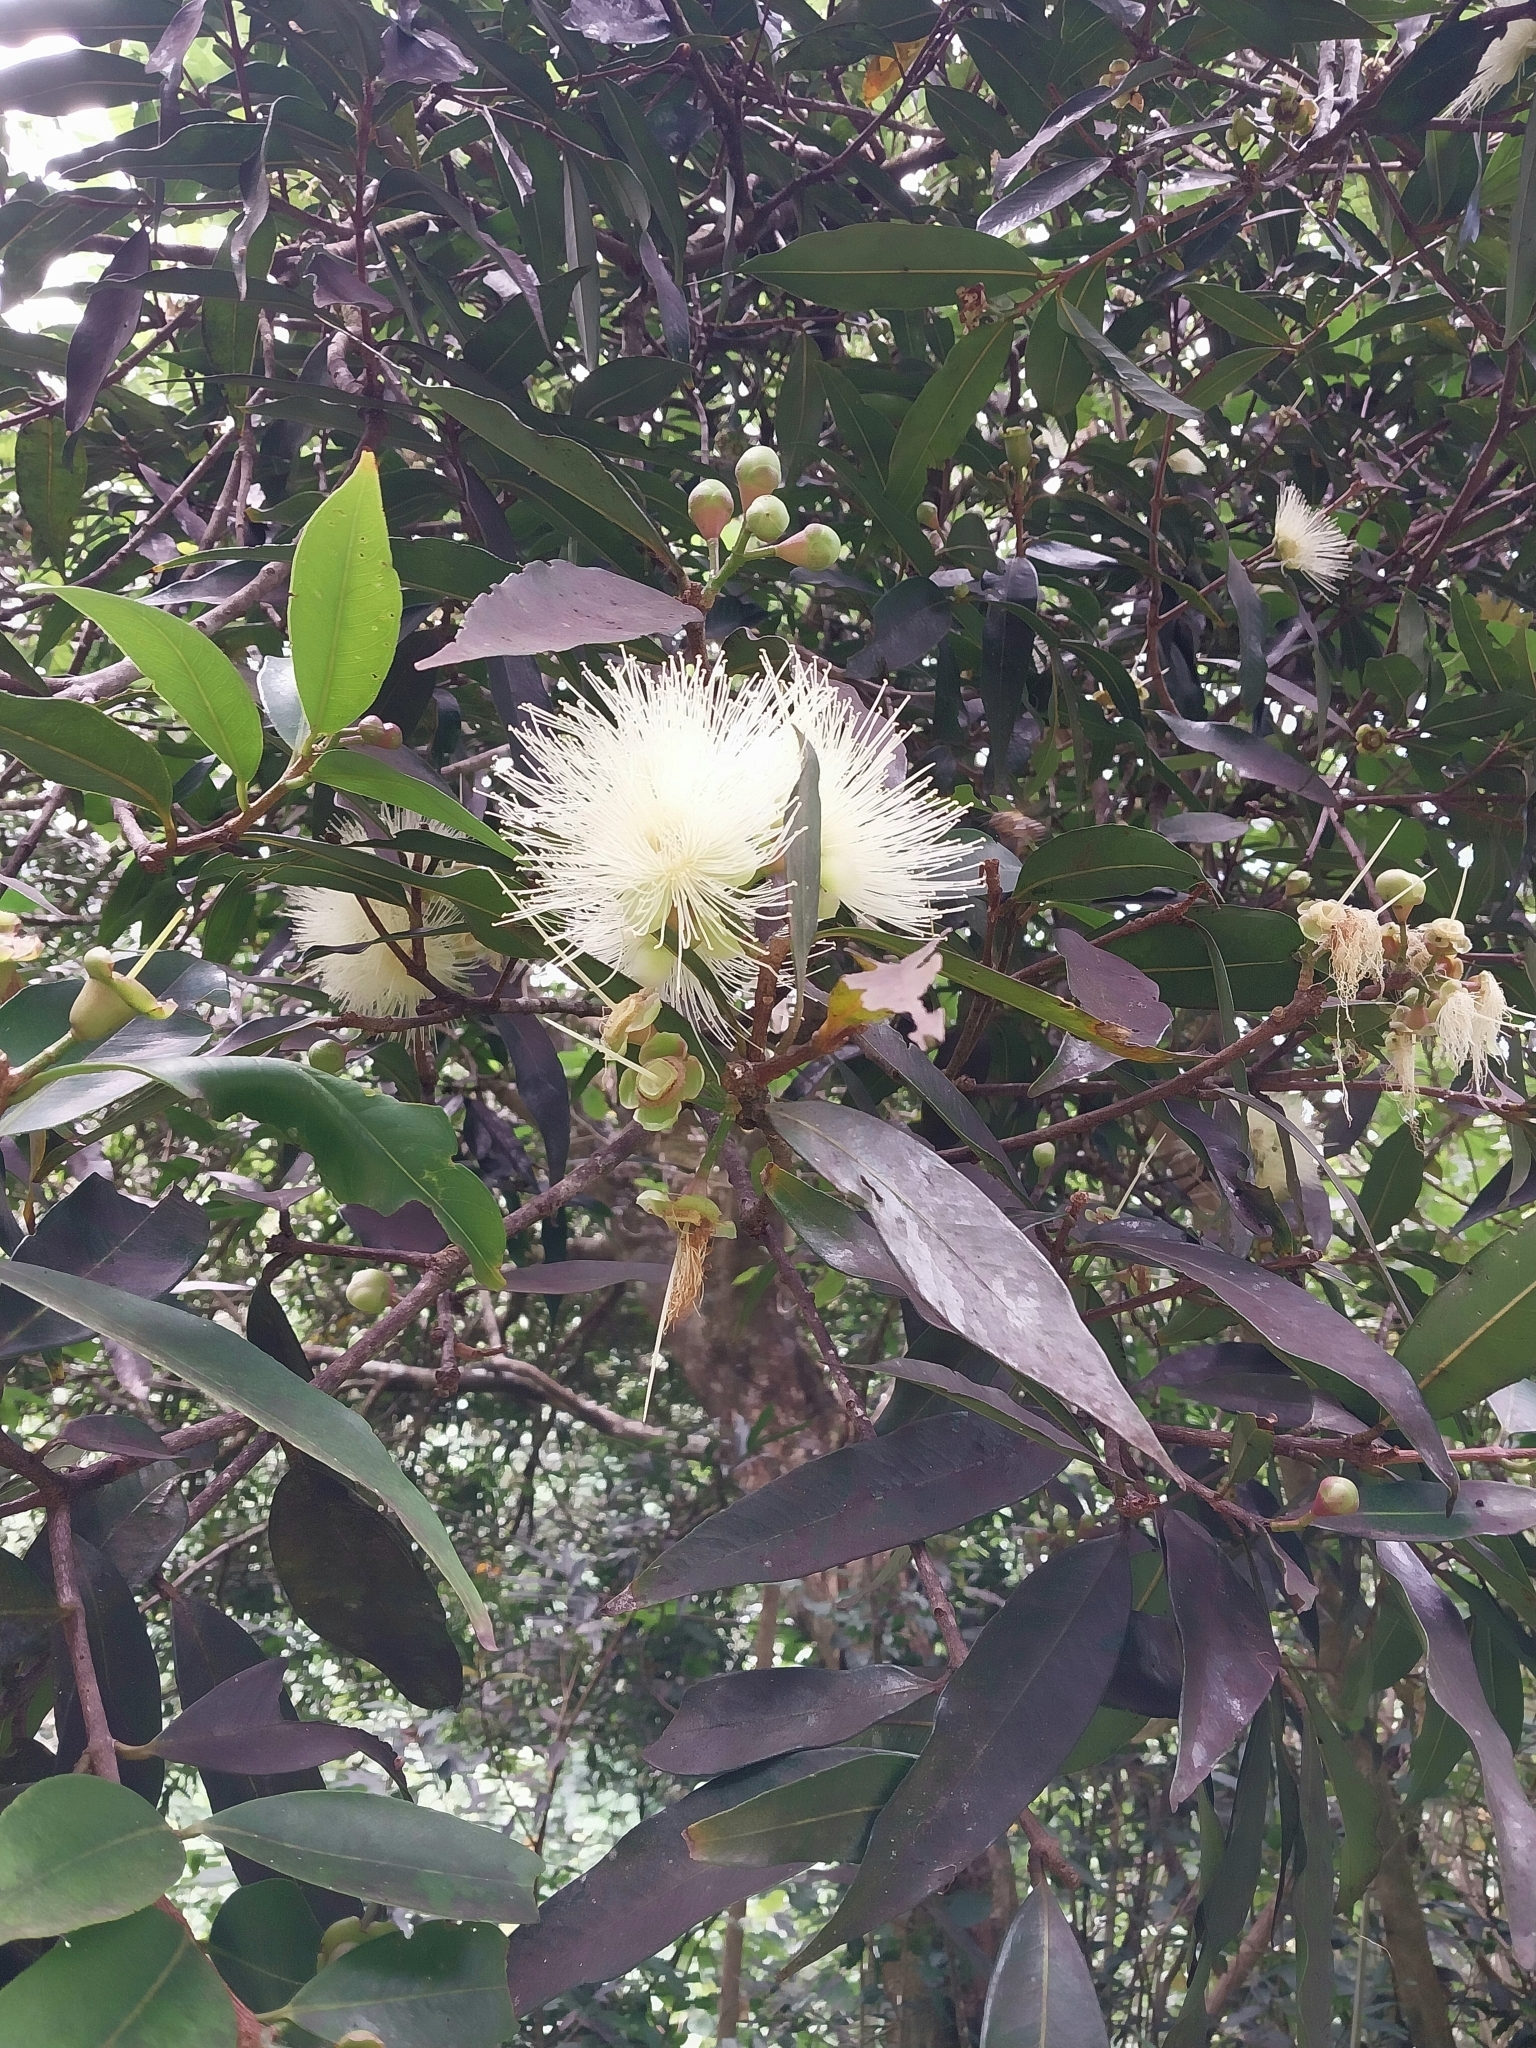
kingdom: Plantae
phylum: Tracheophyta
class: Magnoliopsida
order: Myrtales
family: Myrtaceae
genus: Syzygium
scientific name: Syzygium jambos
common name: Malabar plum
